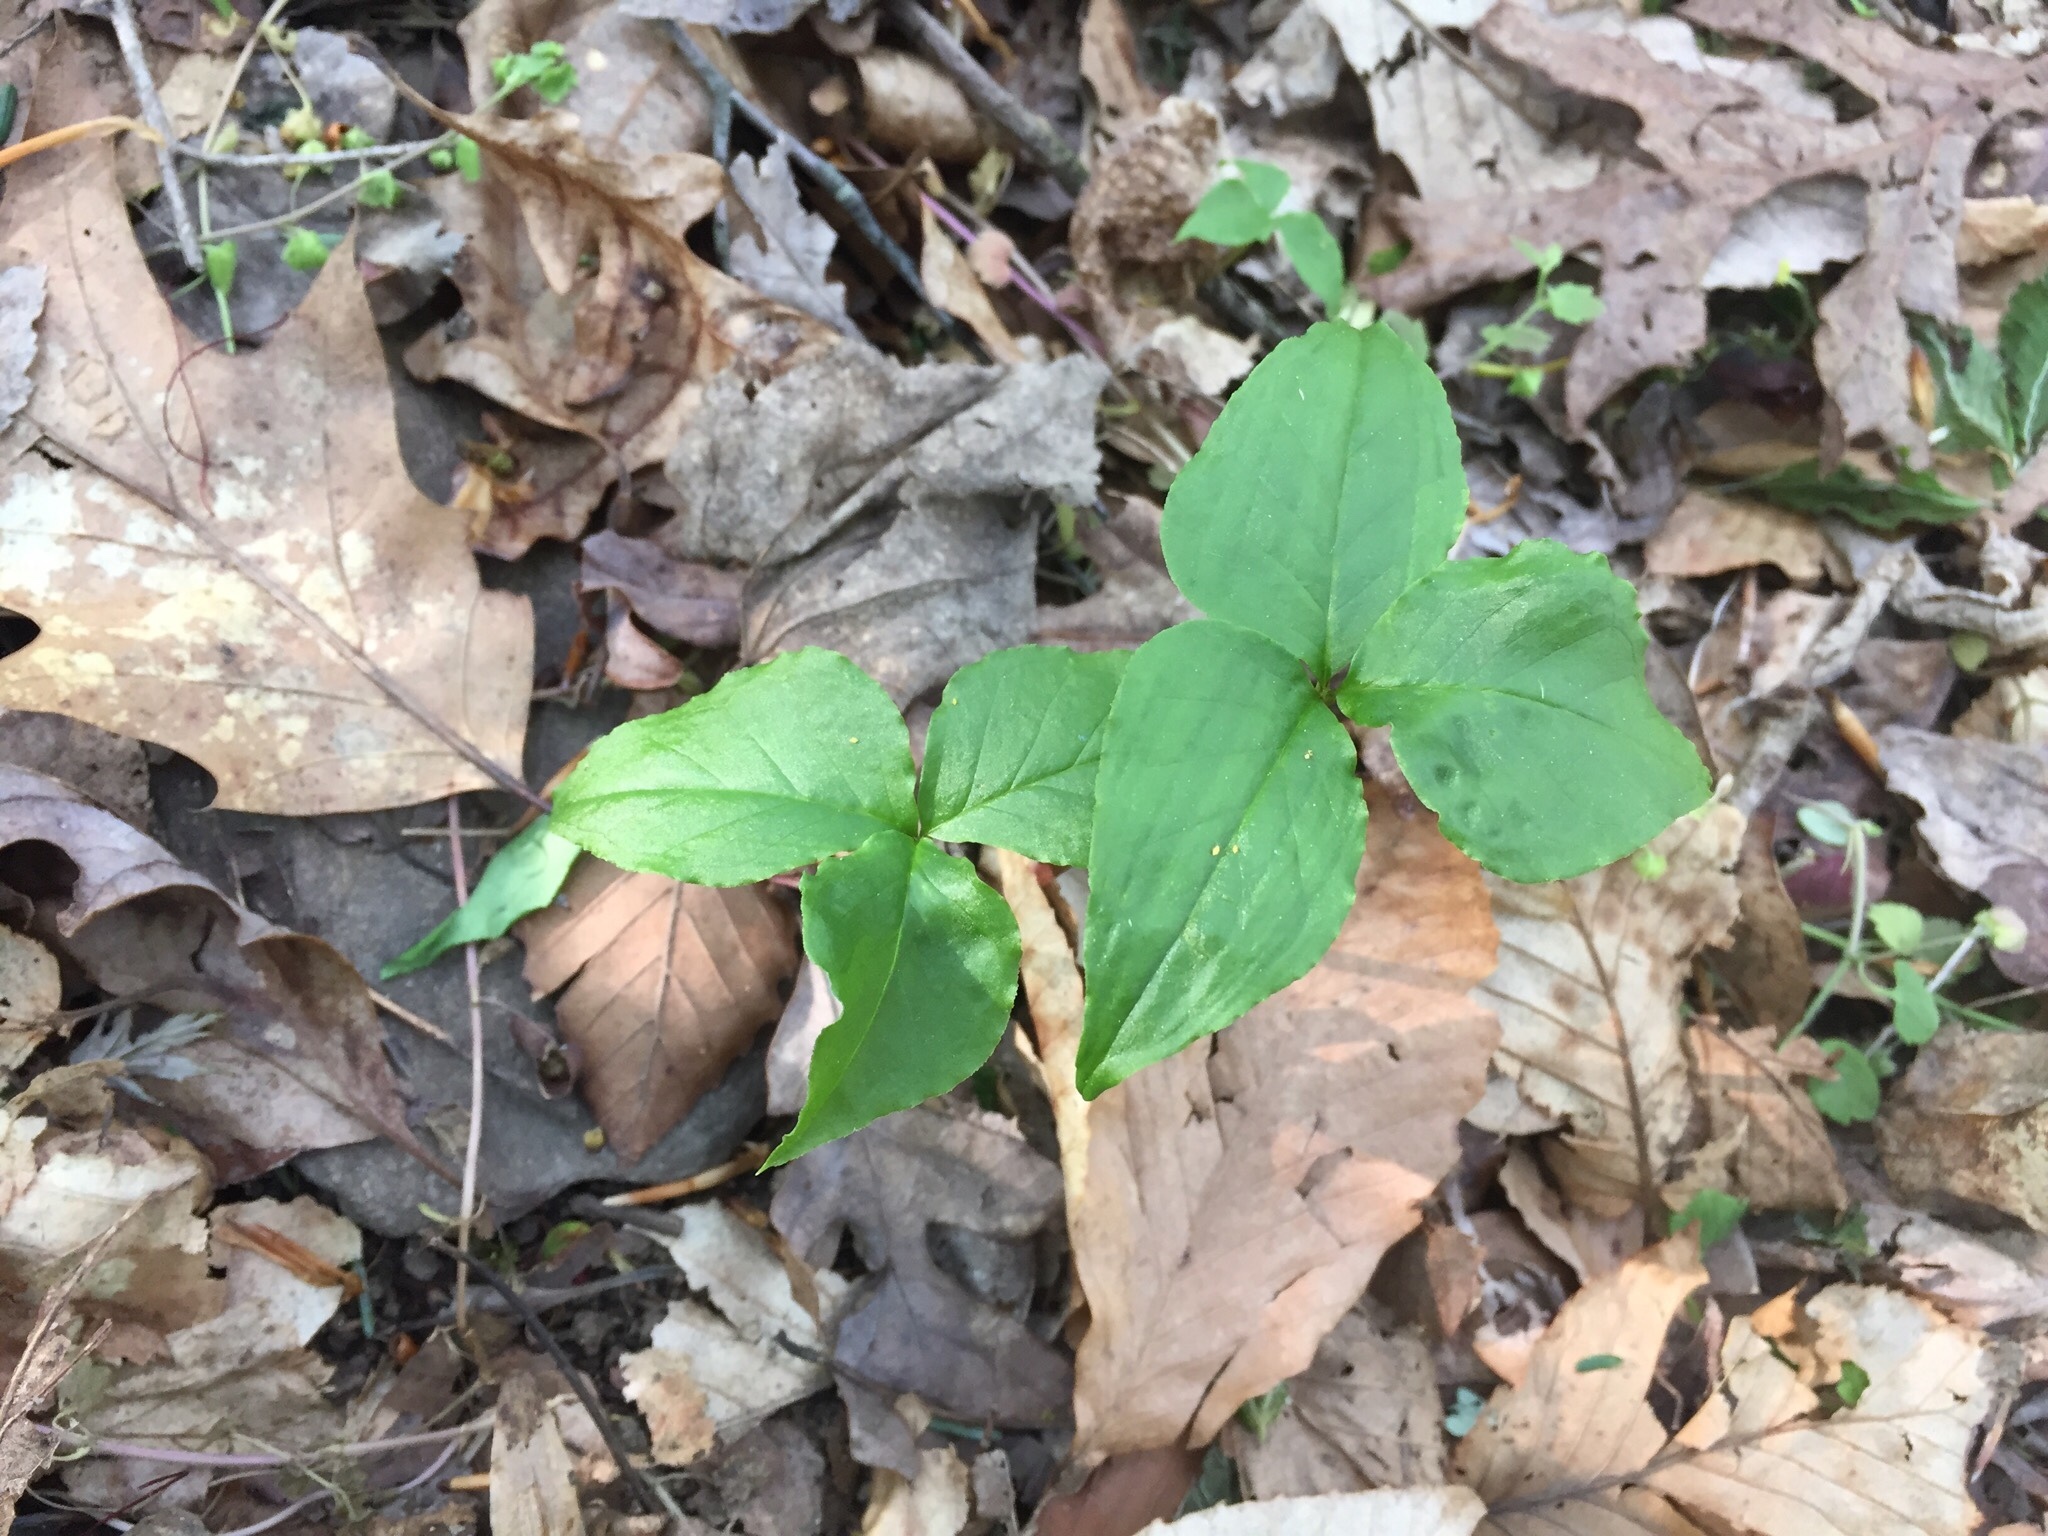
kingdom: Plantae
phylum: Tracheophyta
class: Liliopsida
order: Alismatales
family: Araceae
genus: Arisaema
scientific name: Arisaema triphyllum
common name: Jack-in-the-pulpit
